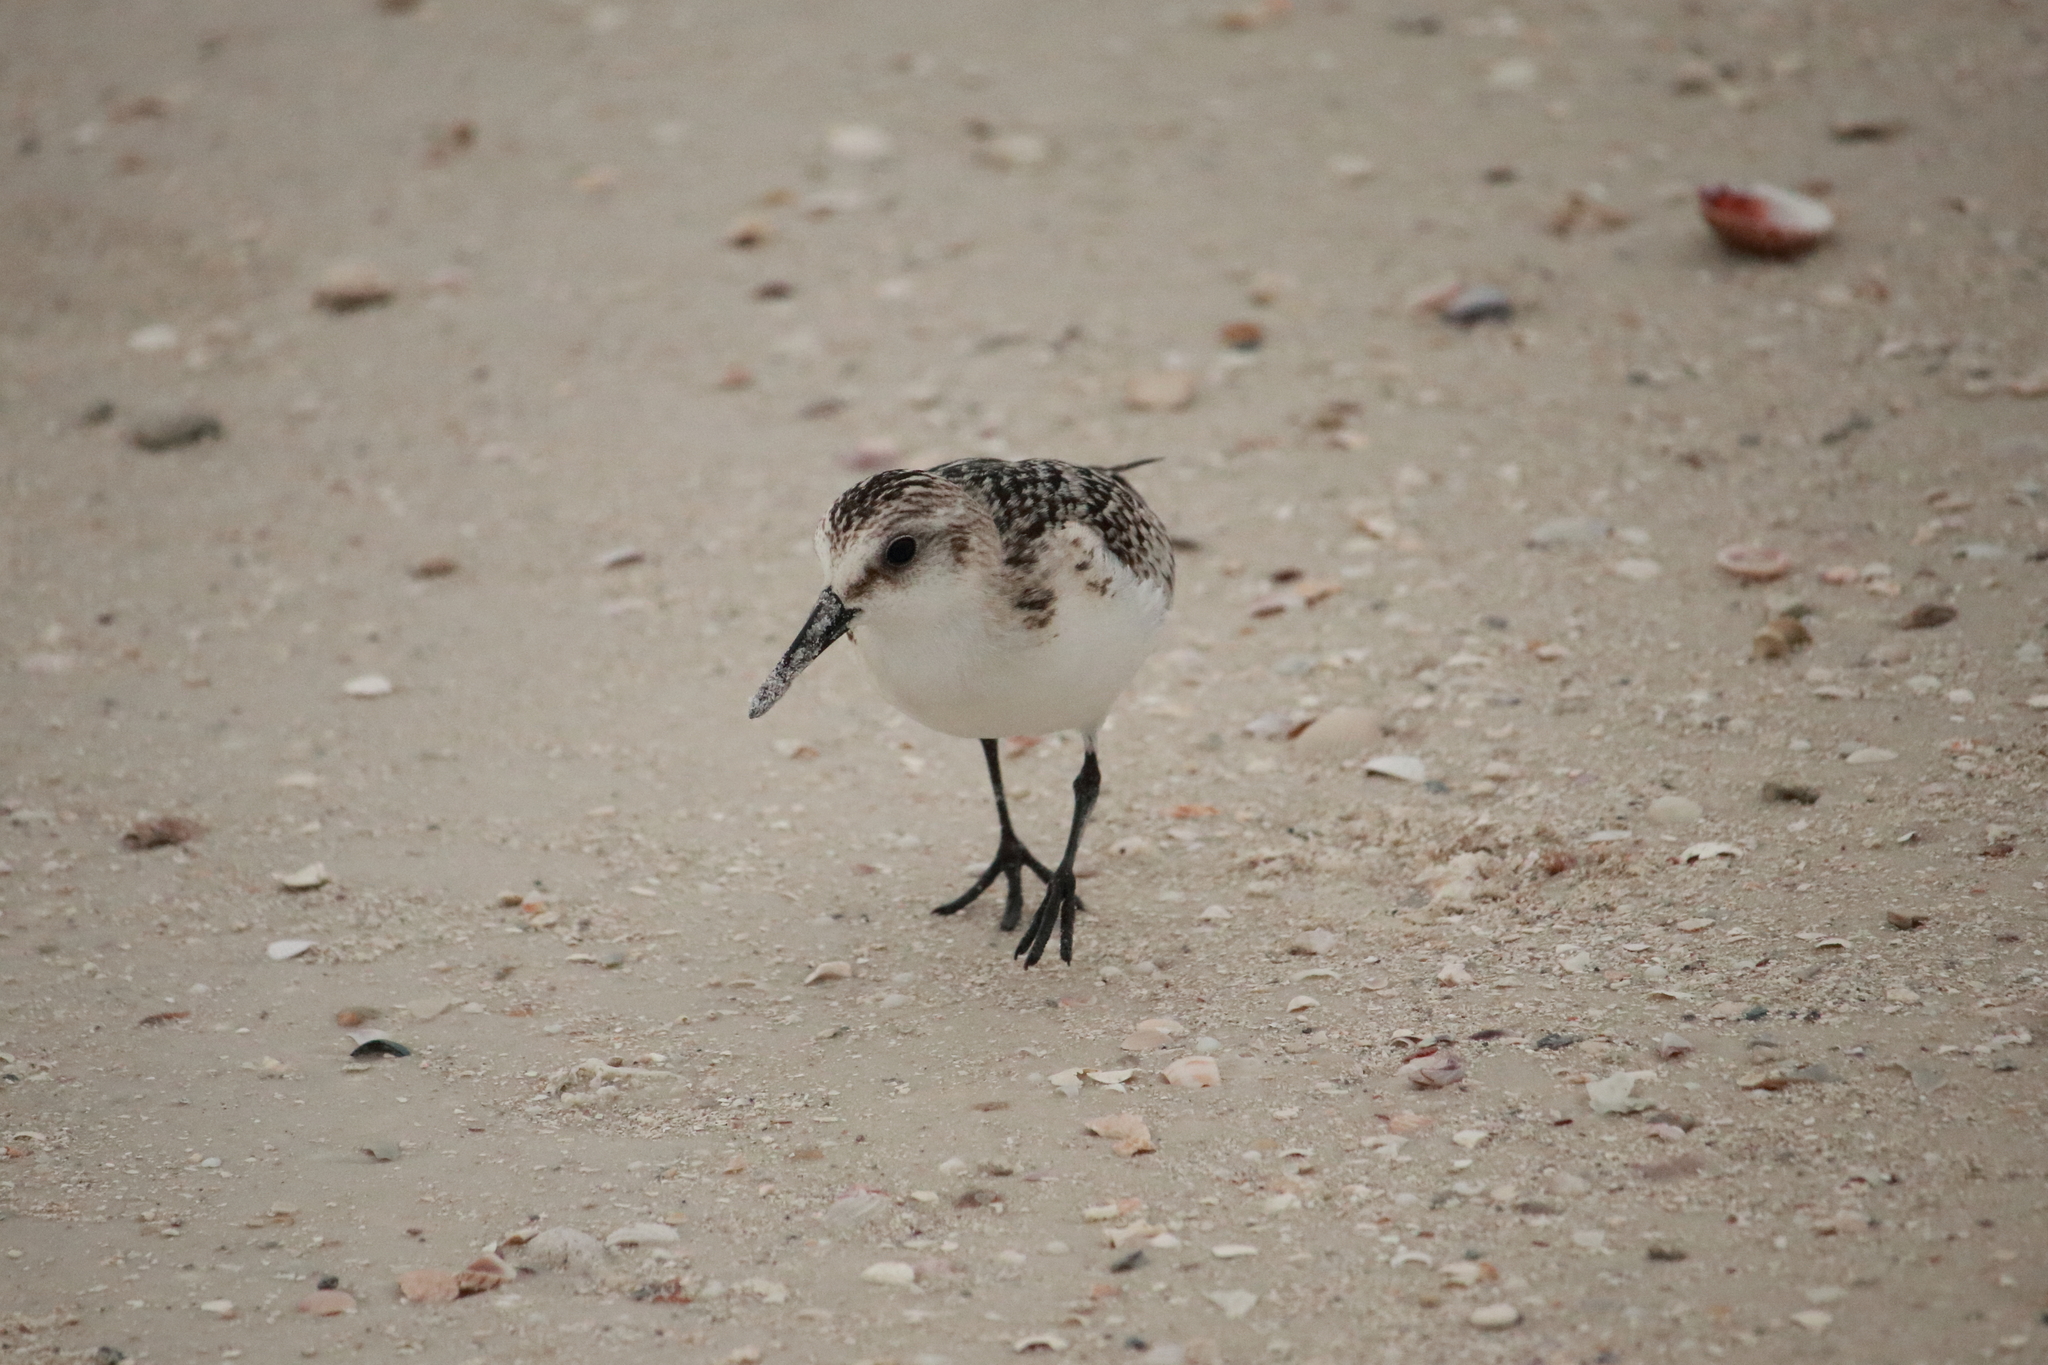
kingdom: Animalia
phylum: Chordata
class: Aves
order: Charadriiformes
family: Scolopacidae
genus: Calidris
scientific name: Calidris alba
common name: Sanderling
